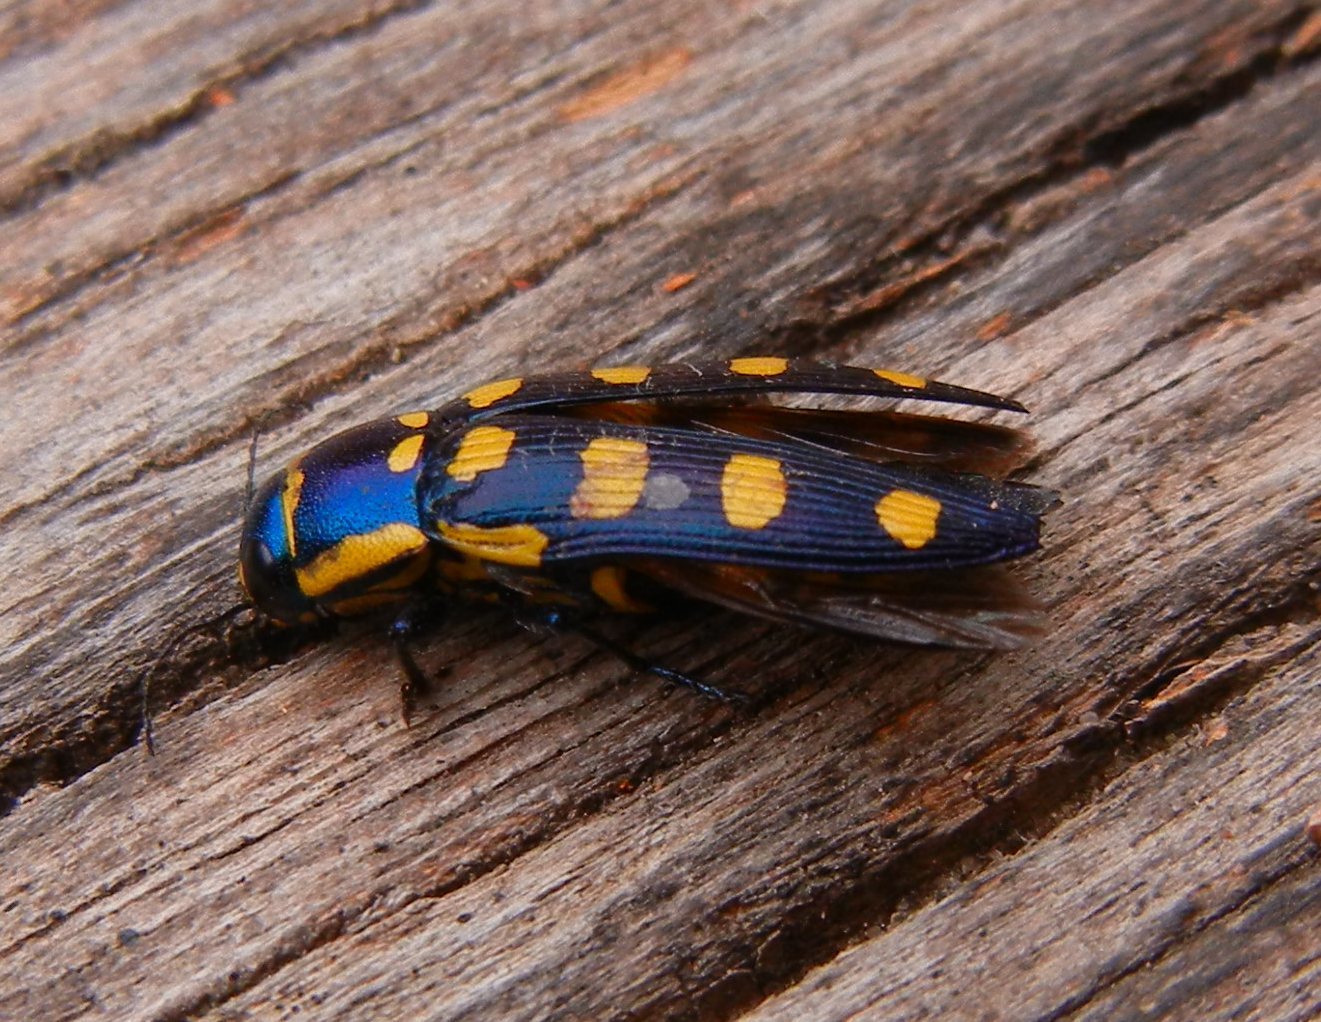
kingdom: Animalia
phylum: Arthropoda
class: Insecta
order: Coleoptera
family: Buprestidae
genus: Buprestis
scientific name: Buprestis octoguttata
